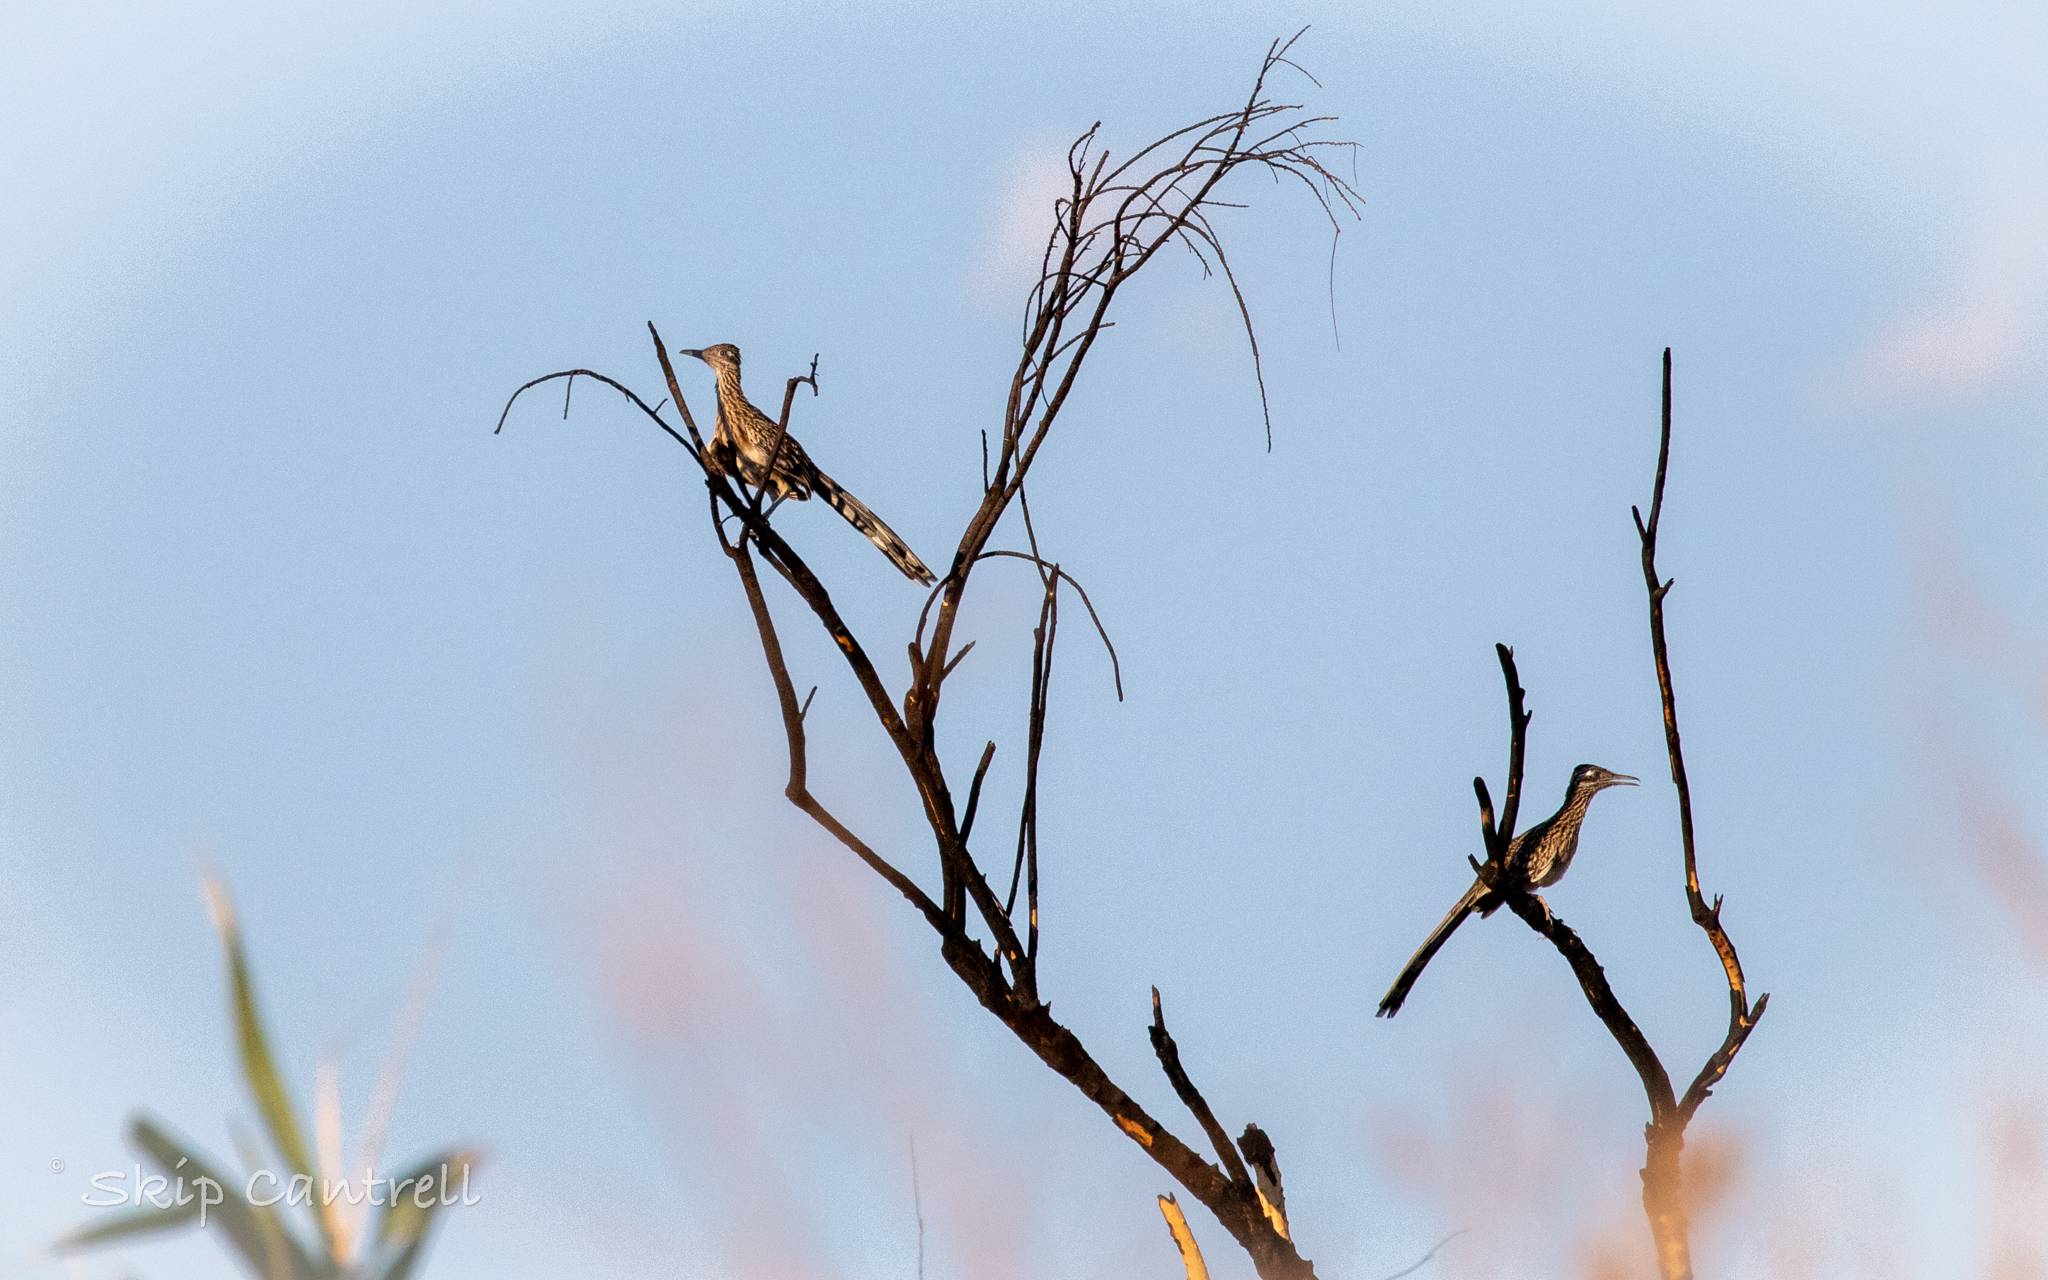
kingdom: Animalia
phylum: Chordata
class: Aves
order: Cuculiformes
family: Cuculidae
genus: Geococcyx
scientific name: Geococcyx californianus
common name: Greater roadrunner
